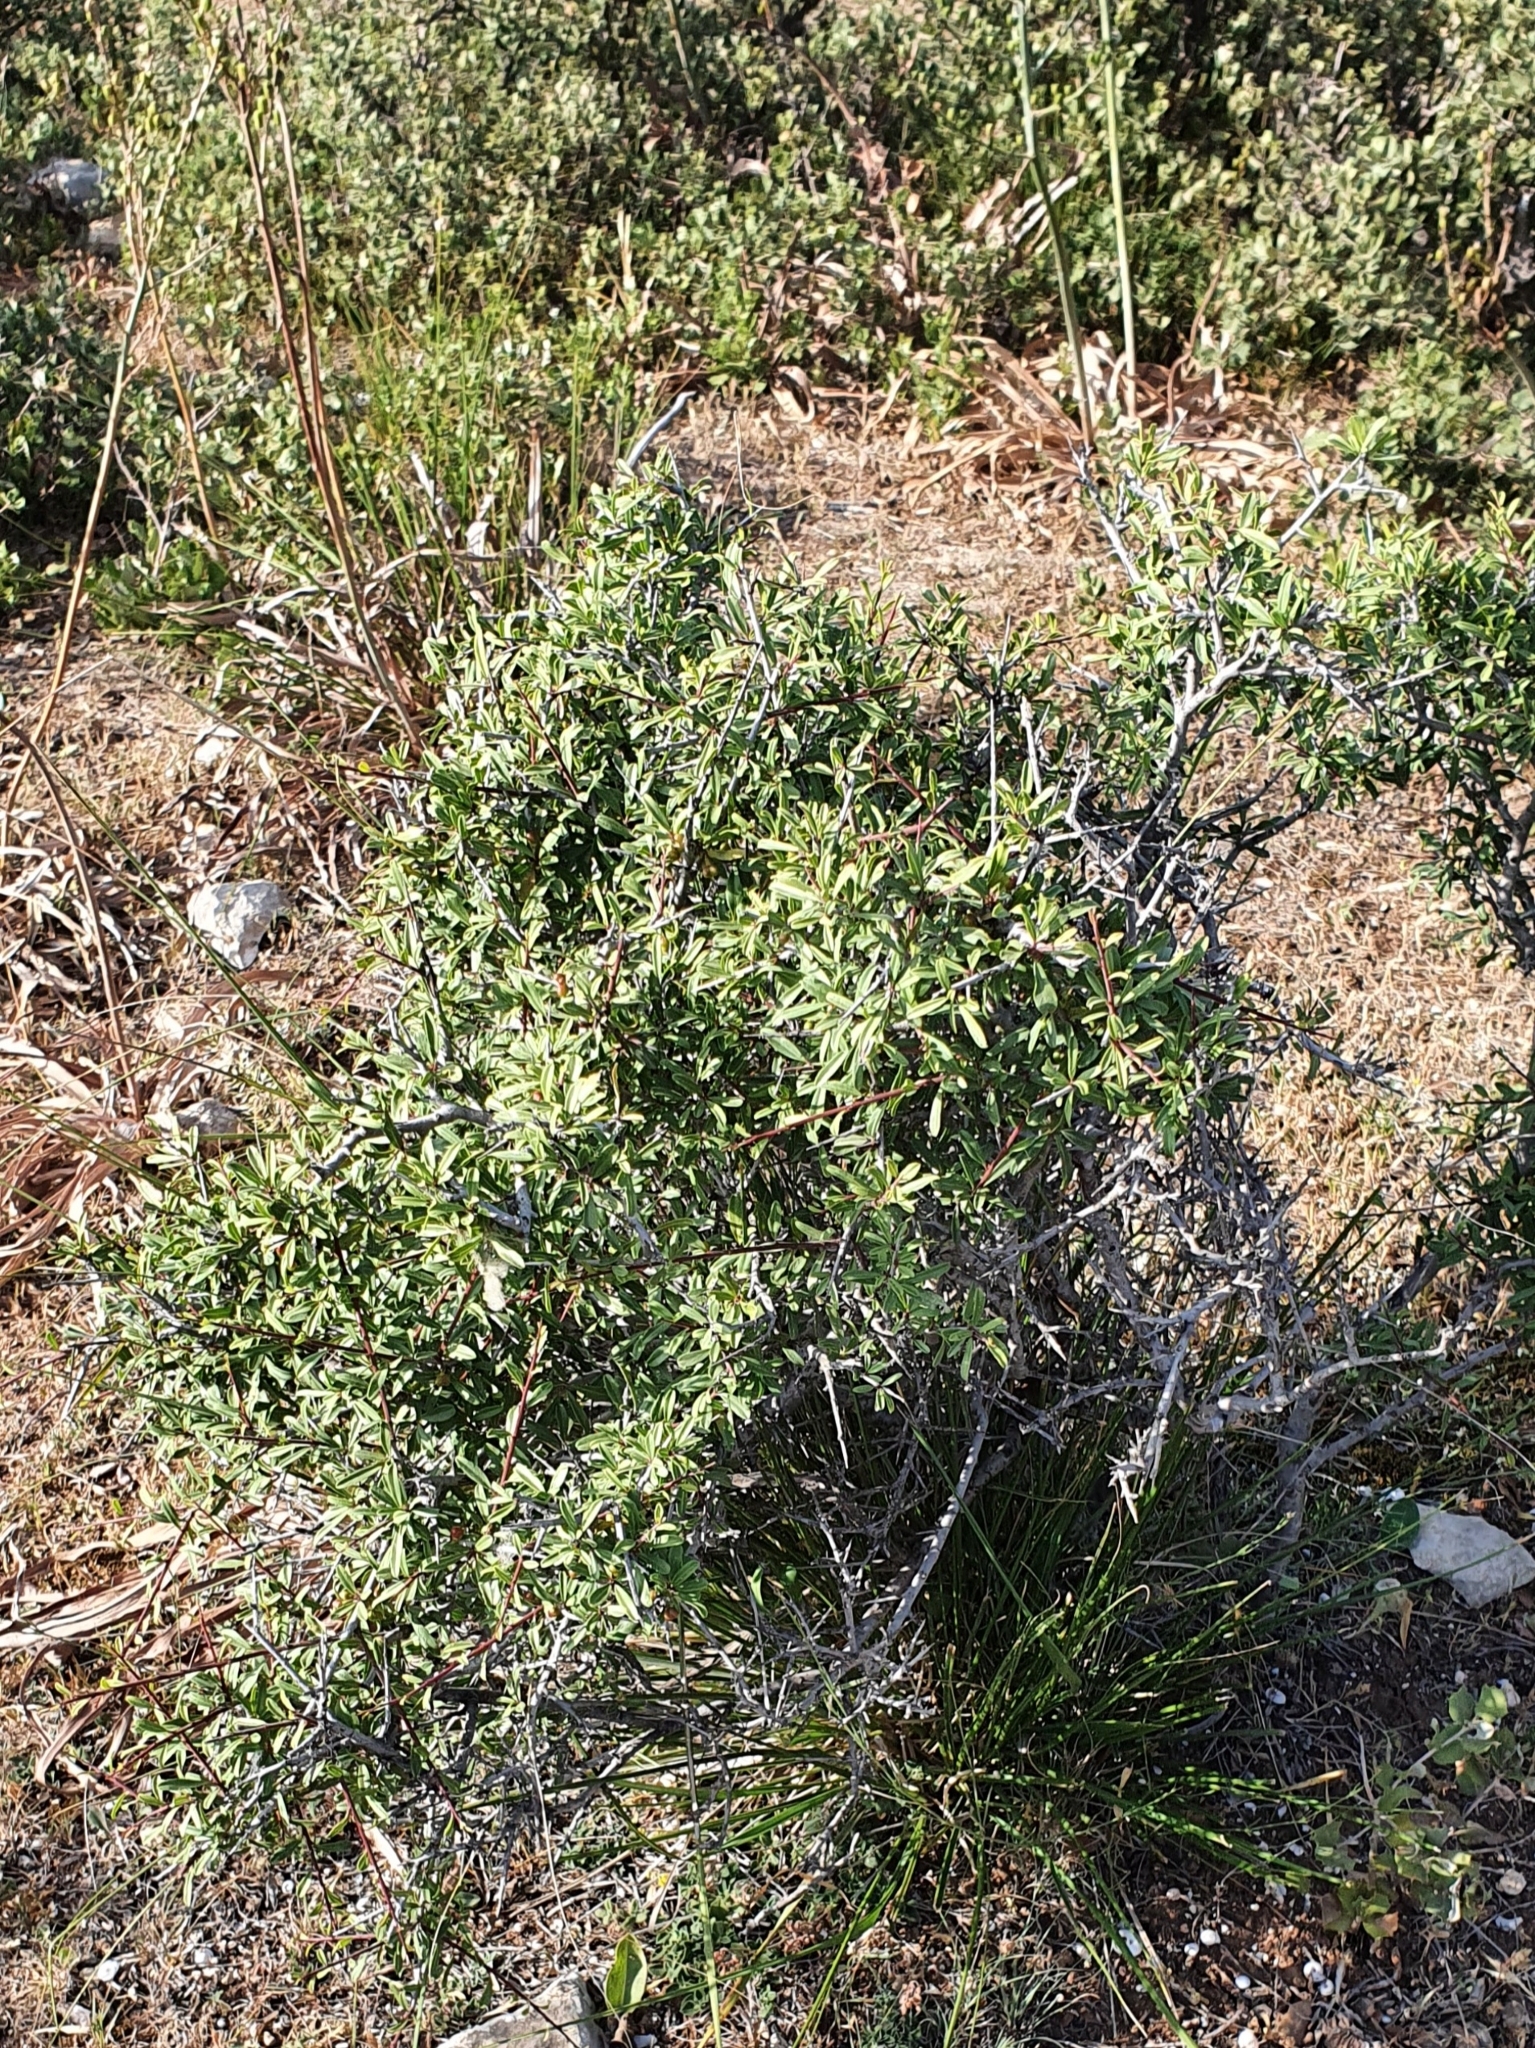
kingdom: Plantae
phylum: Tracheophyta
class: Magnoliopsida
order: Rosales
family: Rhamnaceae
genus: Rhamnus
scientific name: Rhamnus lycioides
